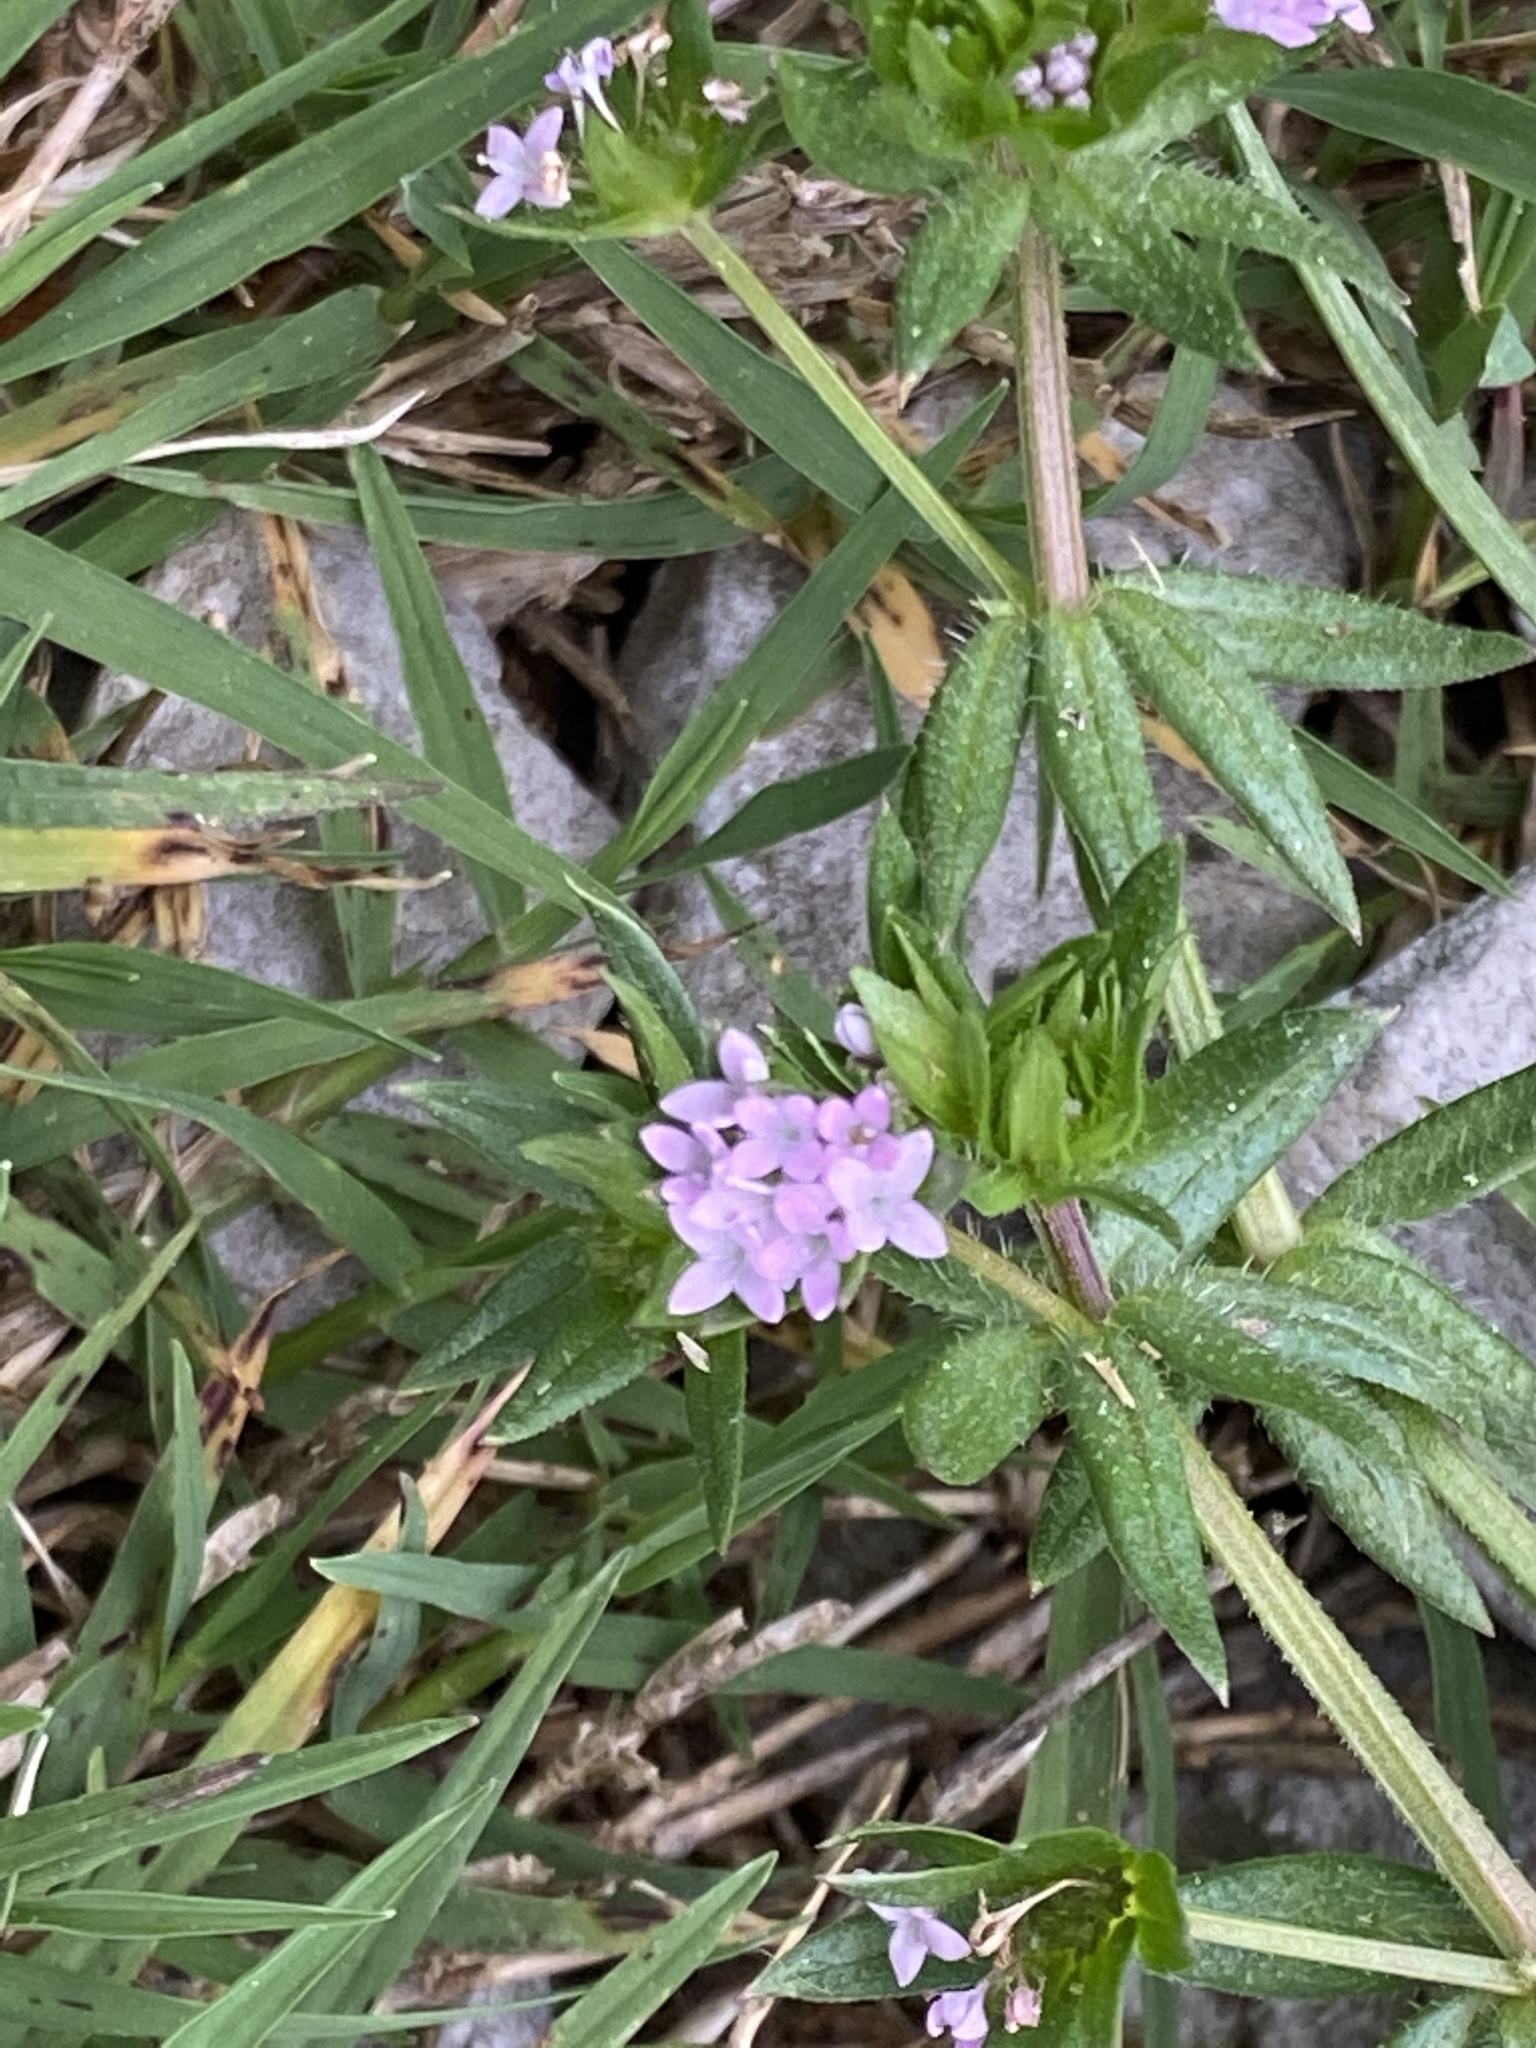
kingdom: Plantae
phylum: Tracheophyta
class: Magnoliopsida
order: Gentianales
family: Rubiaceae
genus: Sherardia
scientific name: Sherardia arvensis
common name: Field madder
